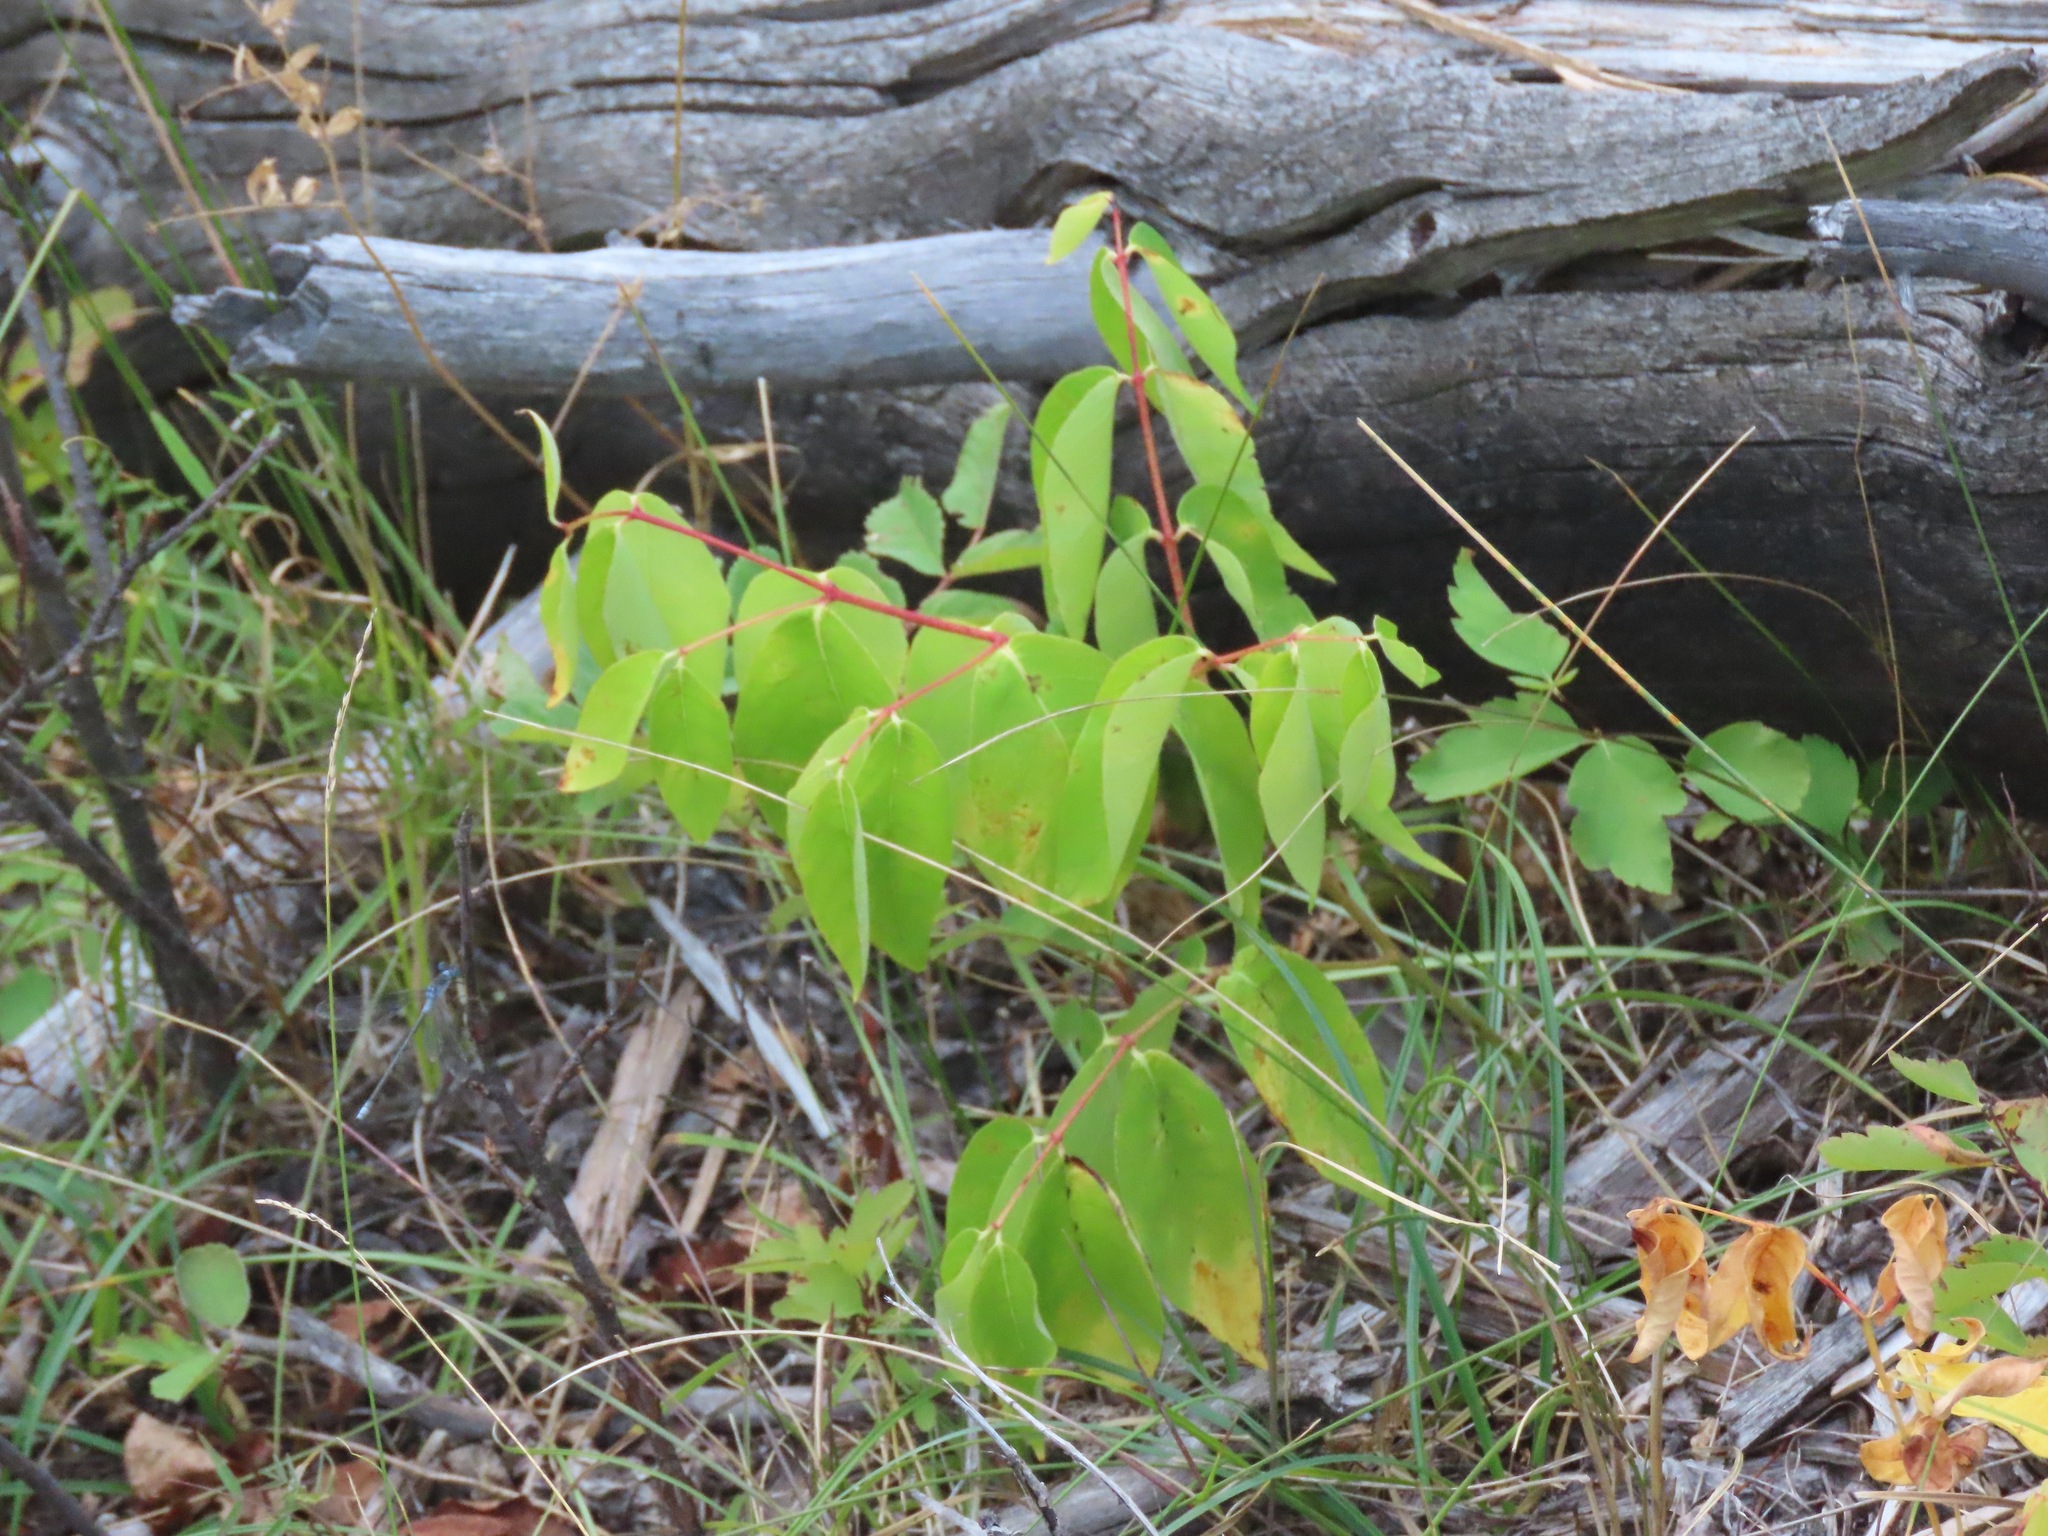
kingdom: Plantae
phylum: Tracheophyta
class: Magnoliopsida
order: Gentianales
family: Apocynaceae
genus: Apocynum
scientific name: Apocynum androsaemifolium
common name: Spreading dogbane
